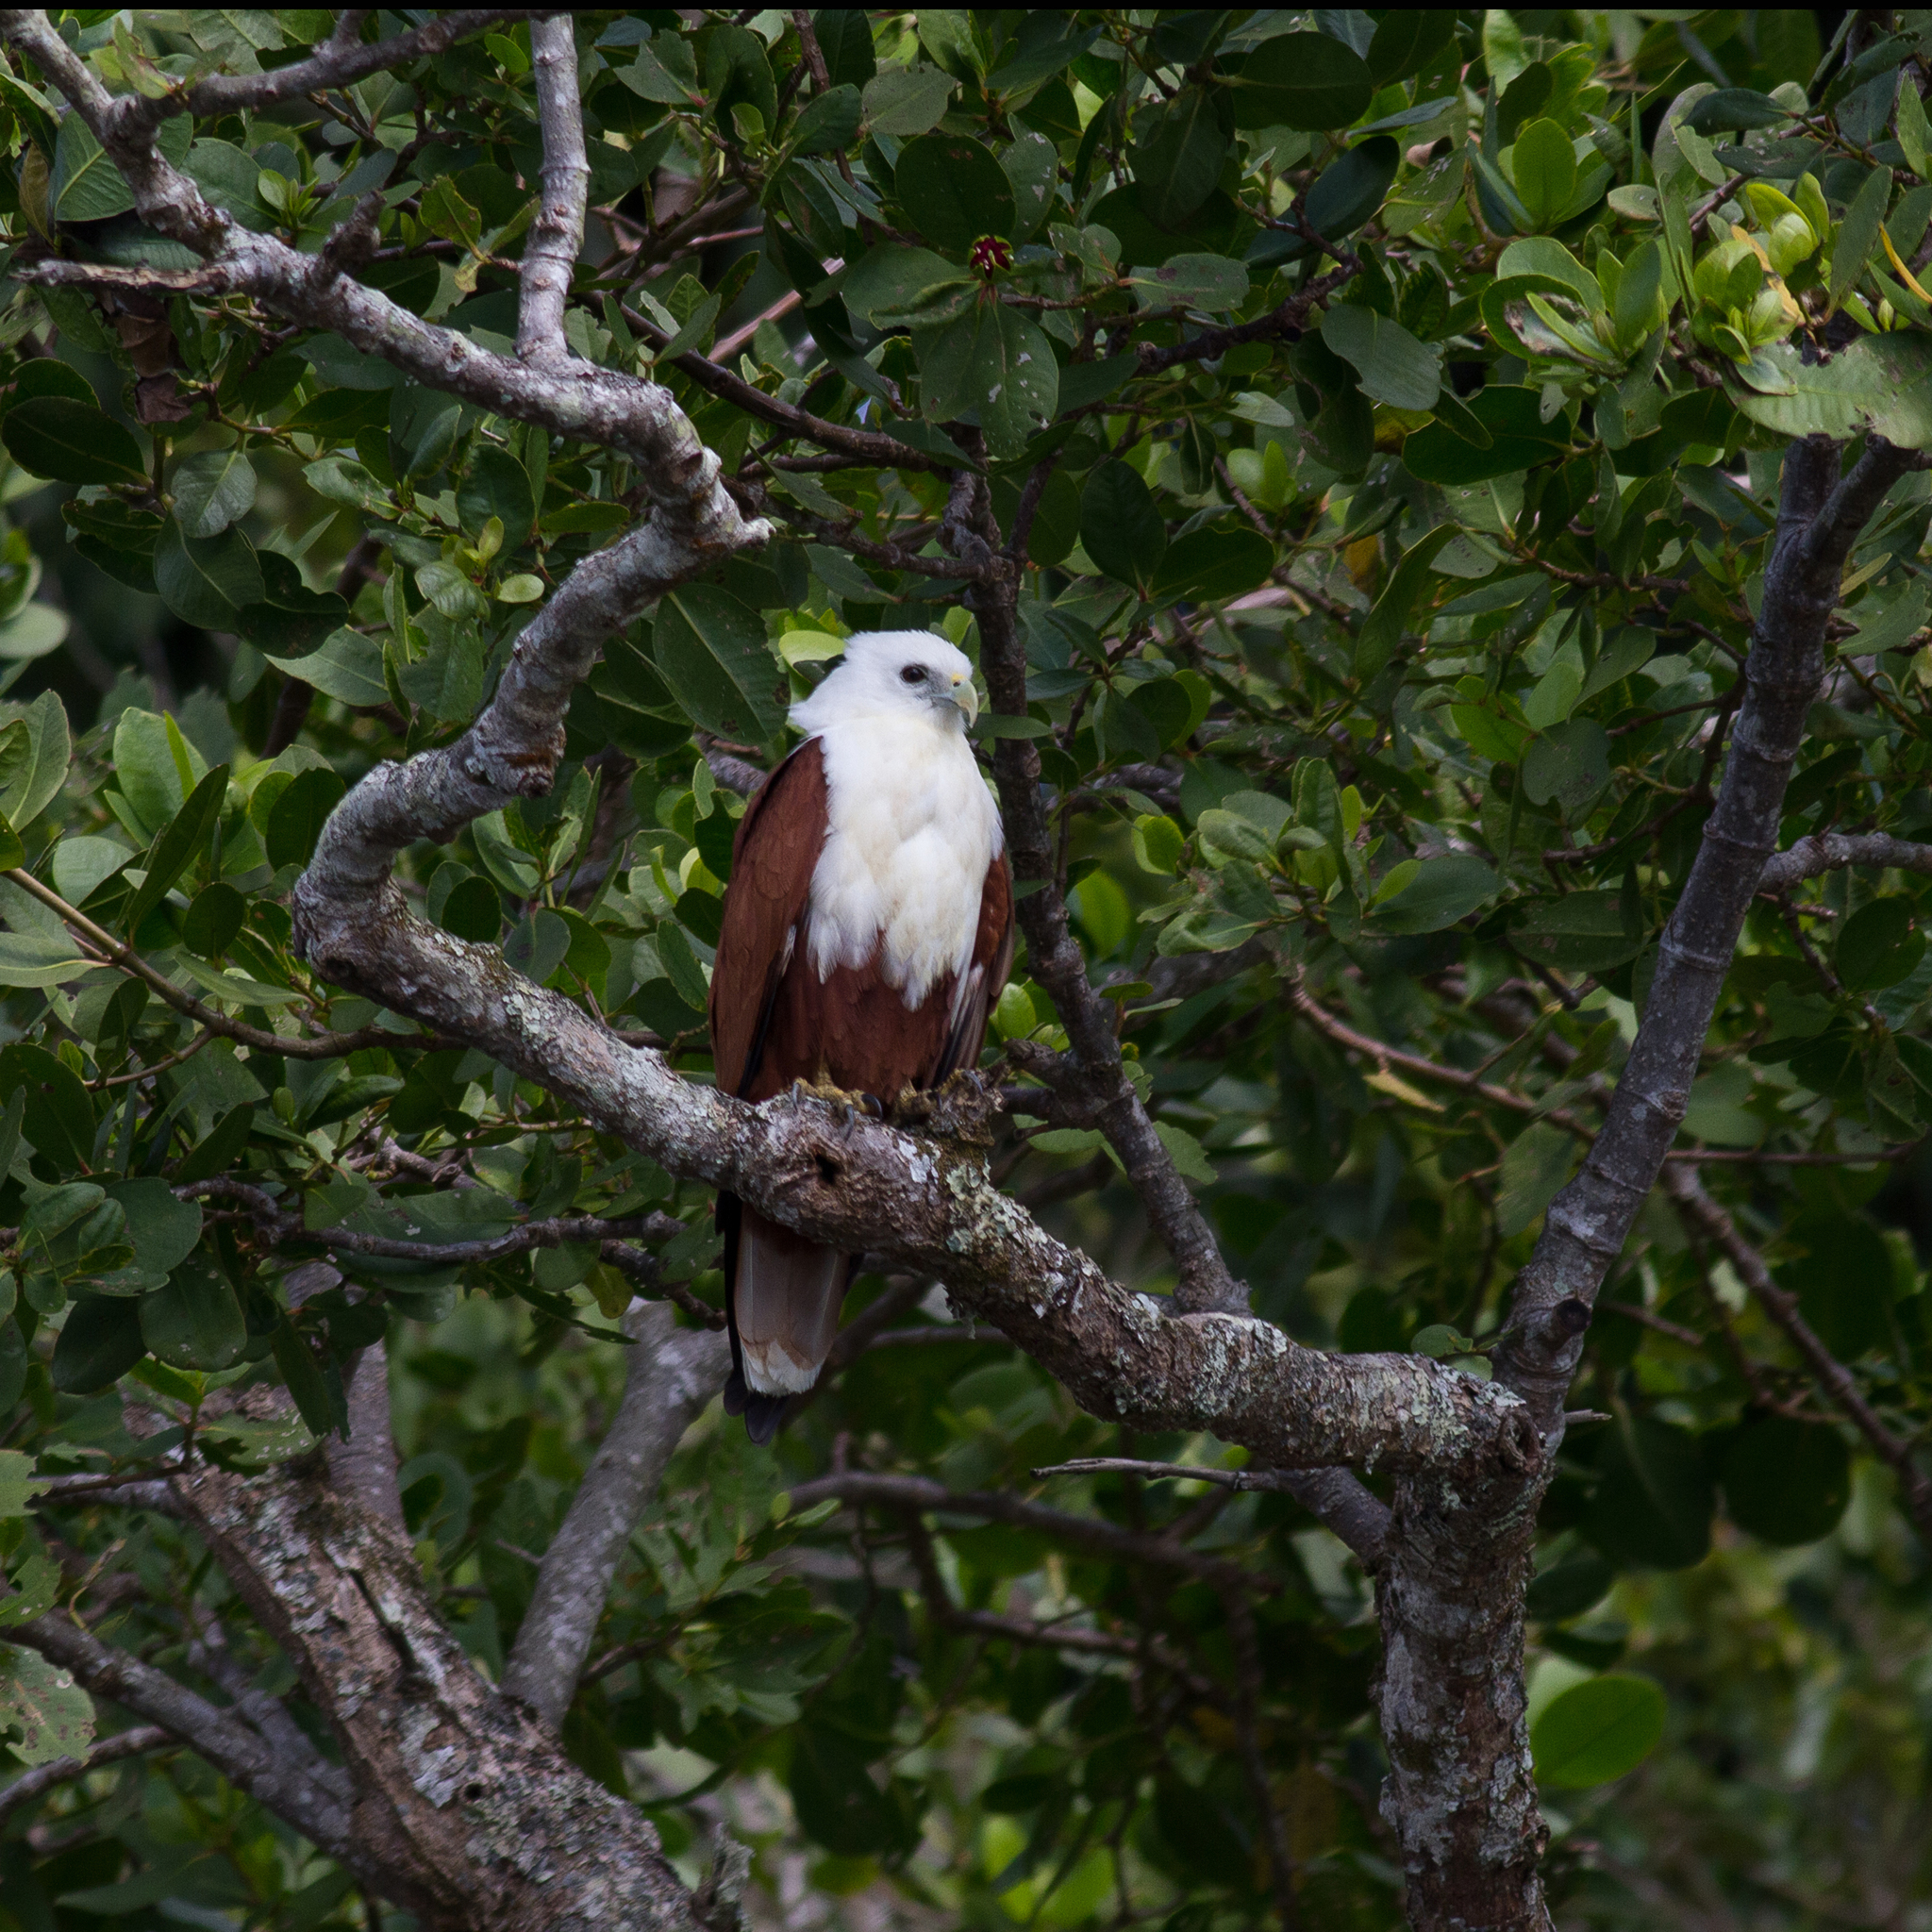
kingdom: Animalia
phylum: Chordata
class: Aves
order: Accipitriformes
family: Accipitridae
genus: Haliastur
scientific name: Haliastur indus
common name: Brahminy kite
